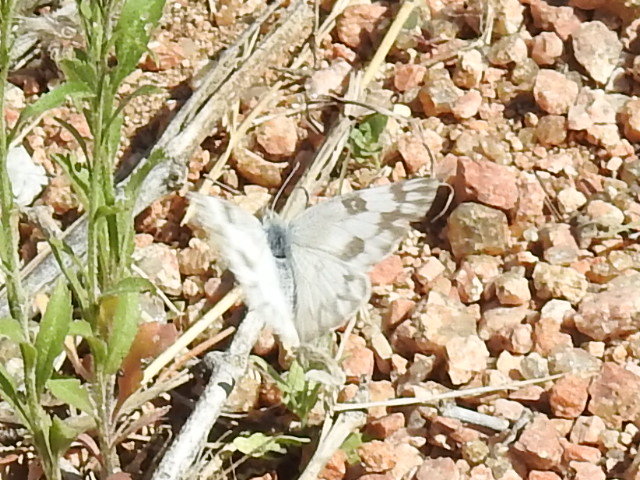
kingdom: Animalia
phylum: Arthropoda
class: Insecta
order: Lepidoptera
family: Pieridae
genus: Pontia
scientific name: Pontia protodice
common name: Checkered white
